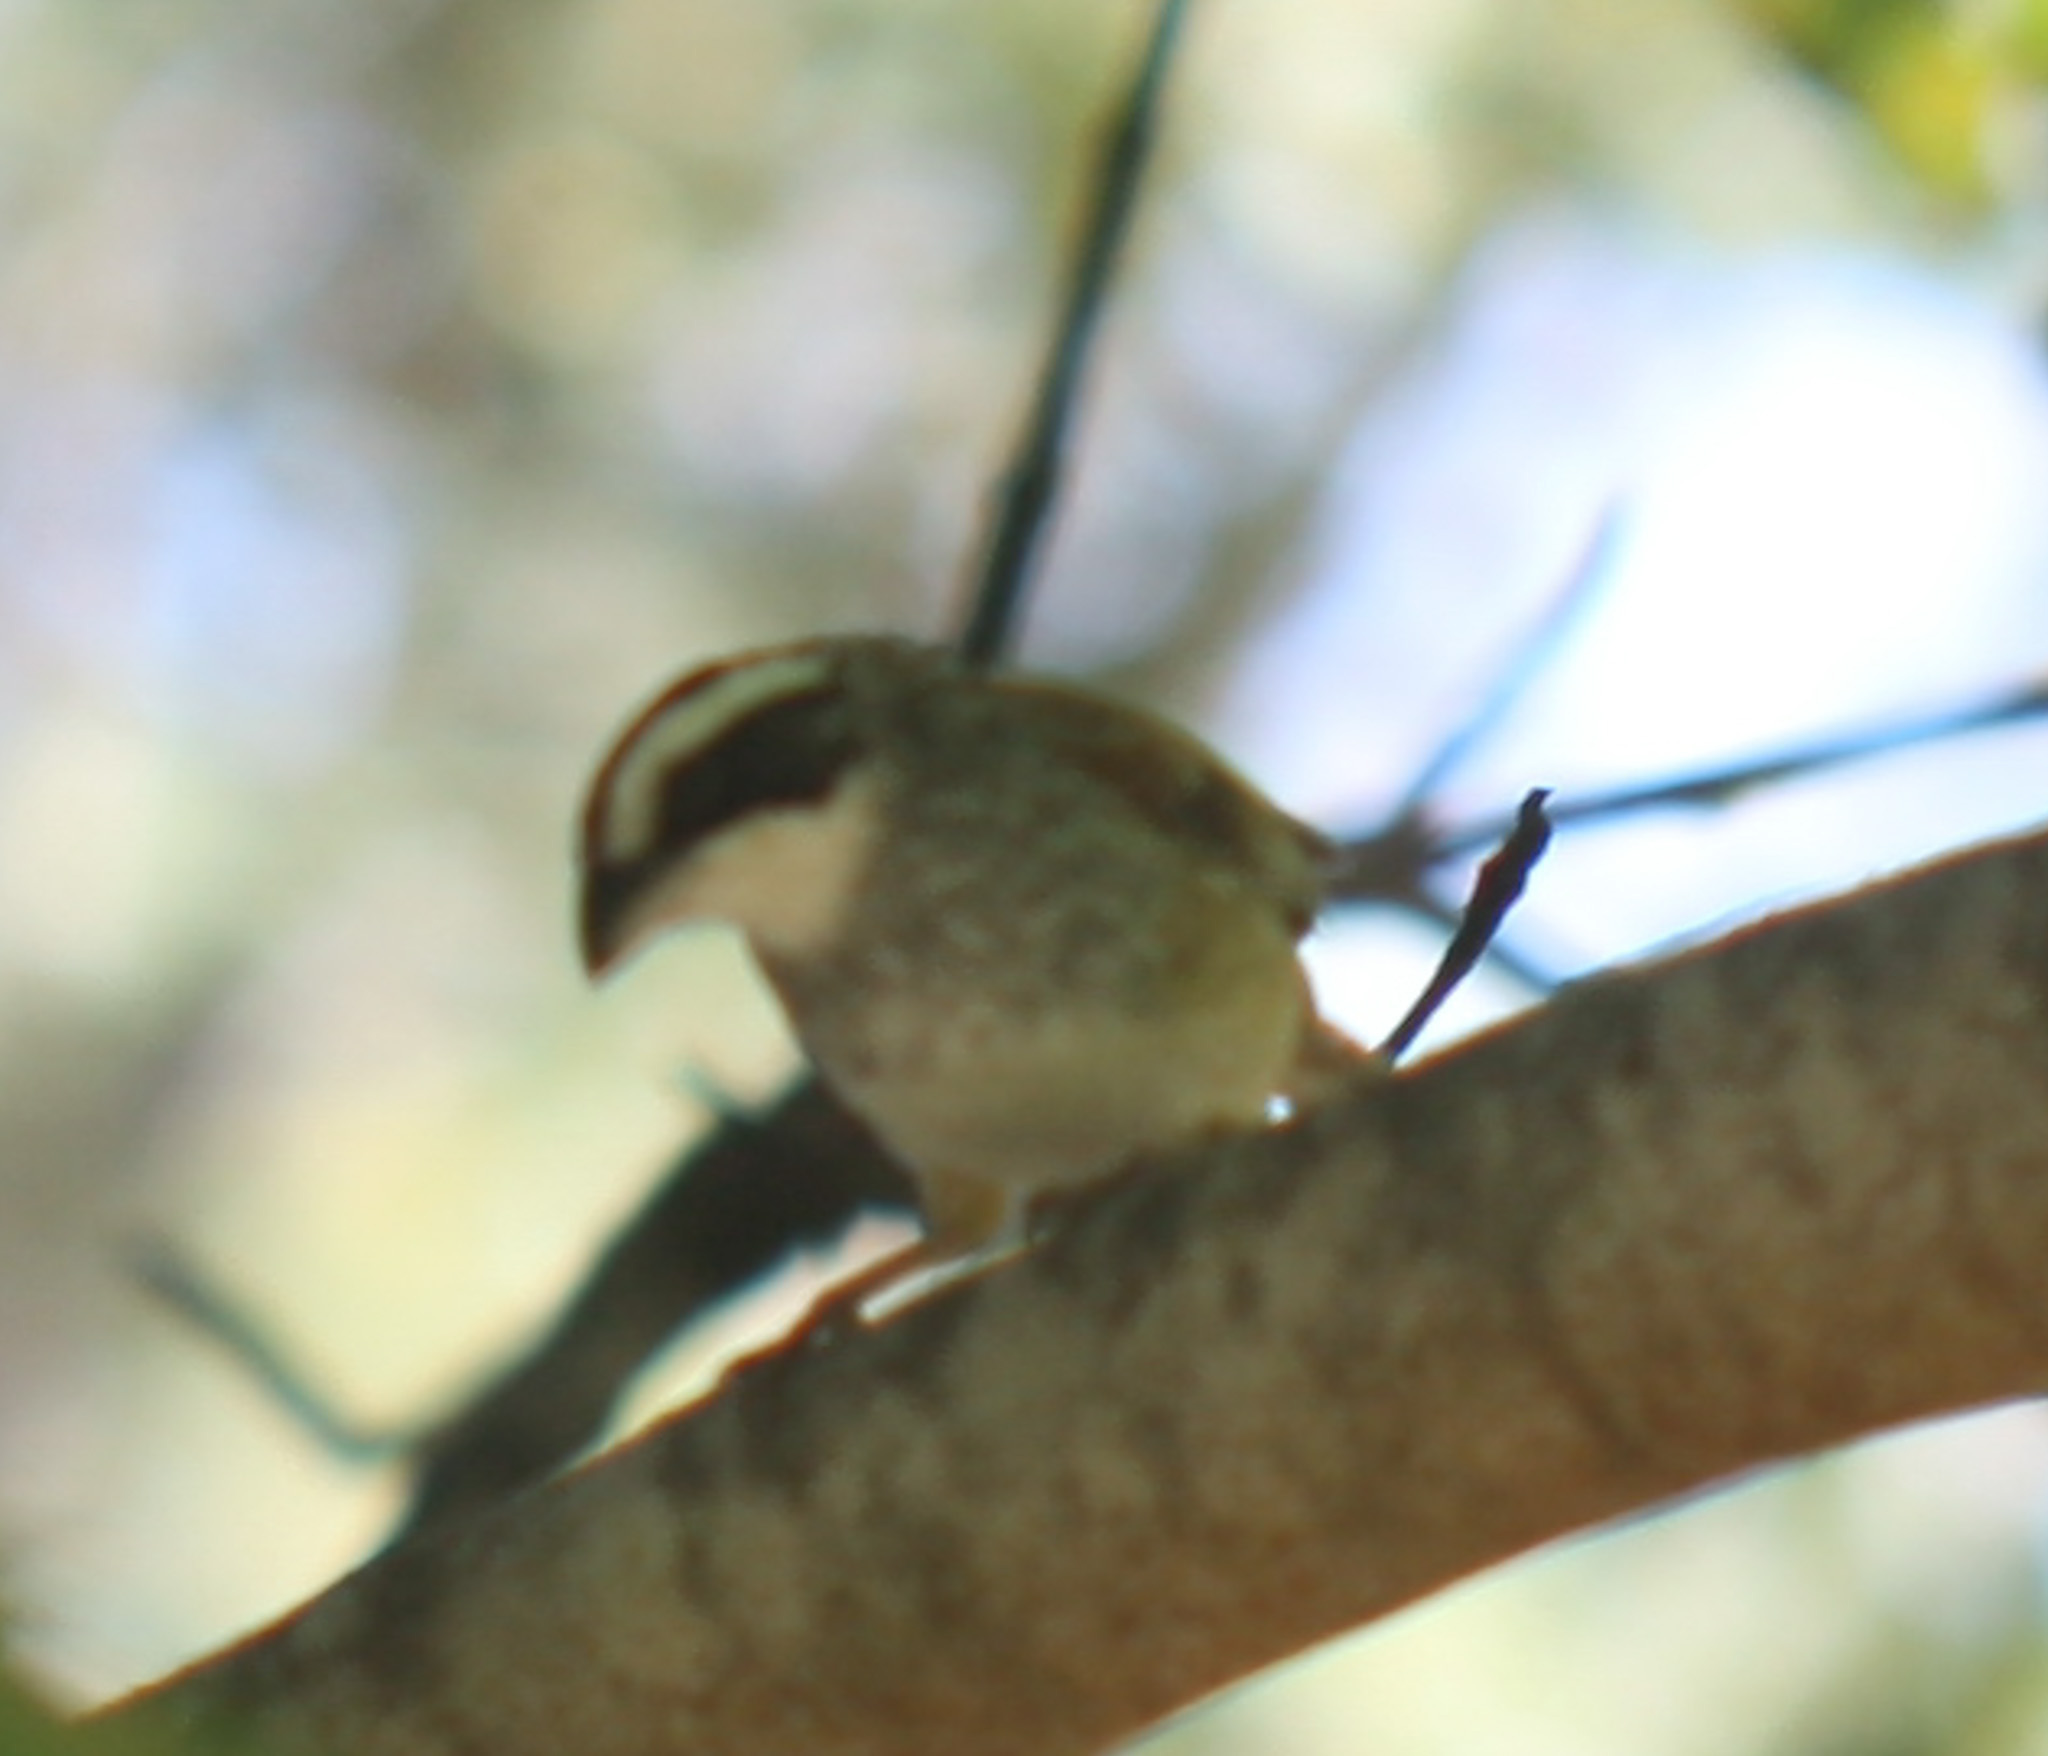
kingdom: Animalia
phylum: Chordata
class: Aves
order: Passeriformes
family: Passerellidae
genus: Peucaea
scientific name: Peucaea ruficauda
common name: Stripe-headed sparrow
